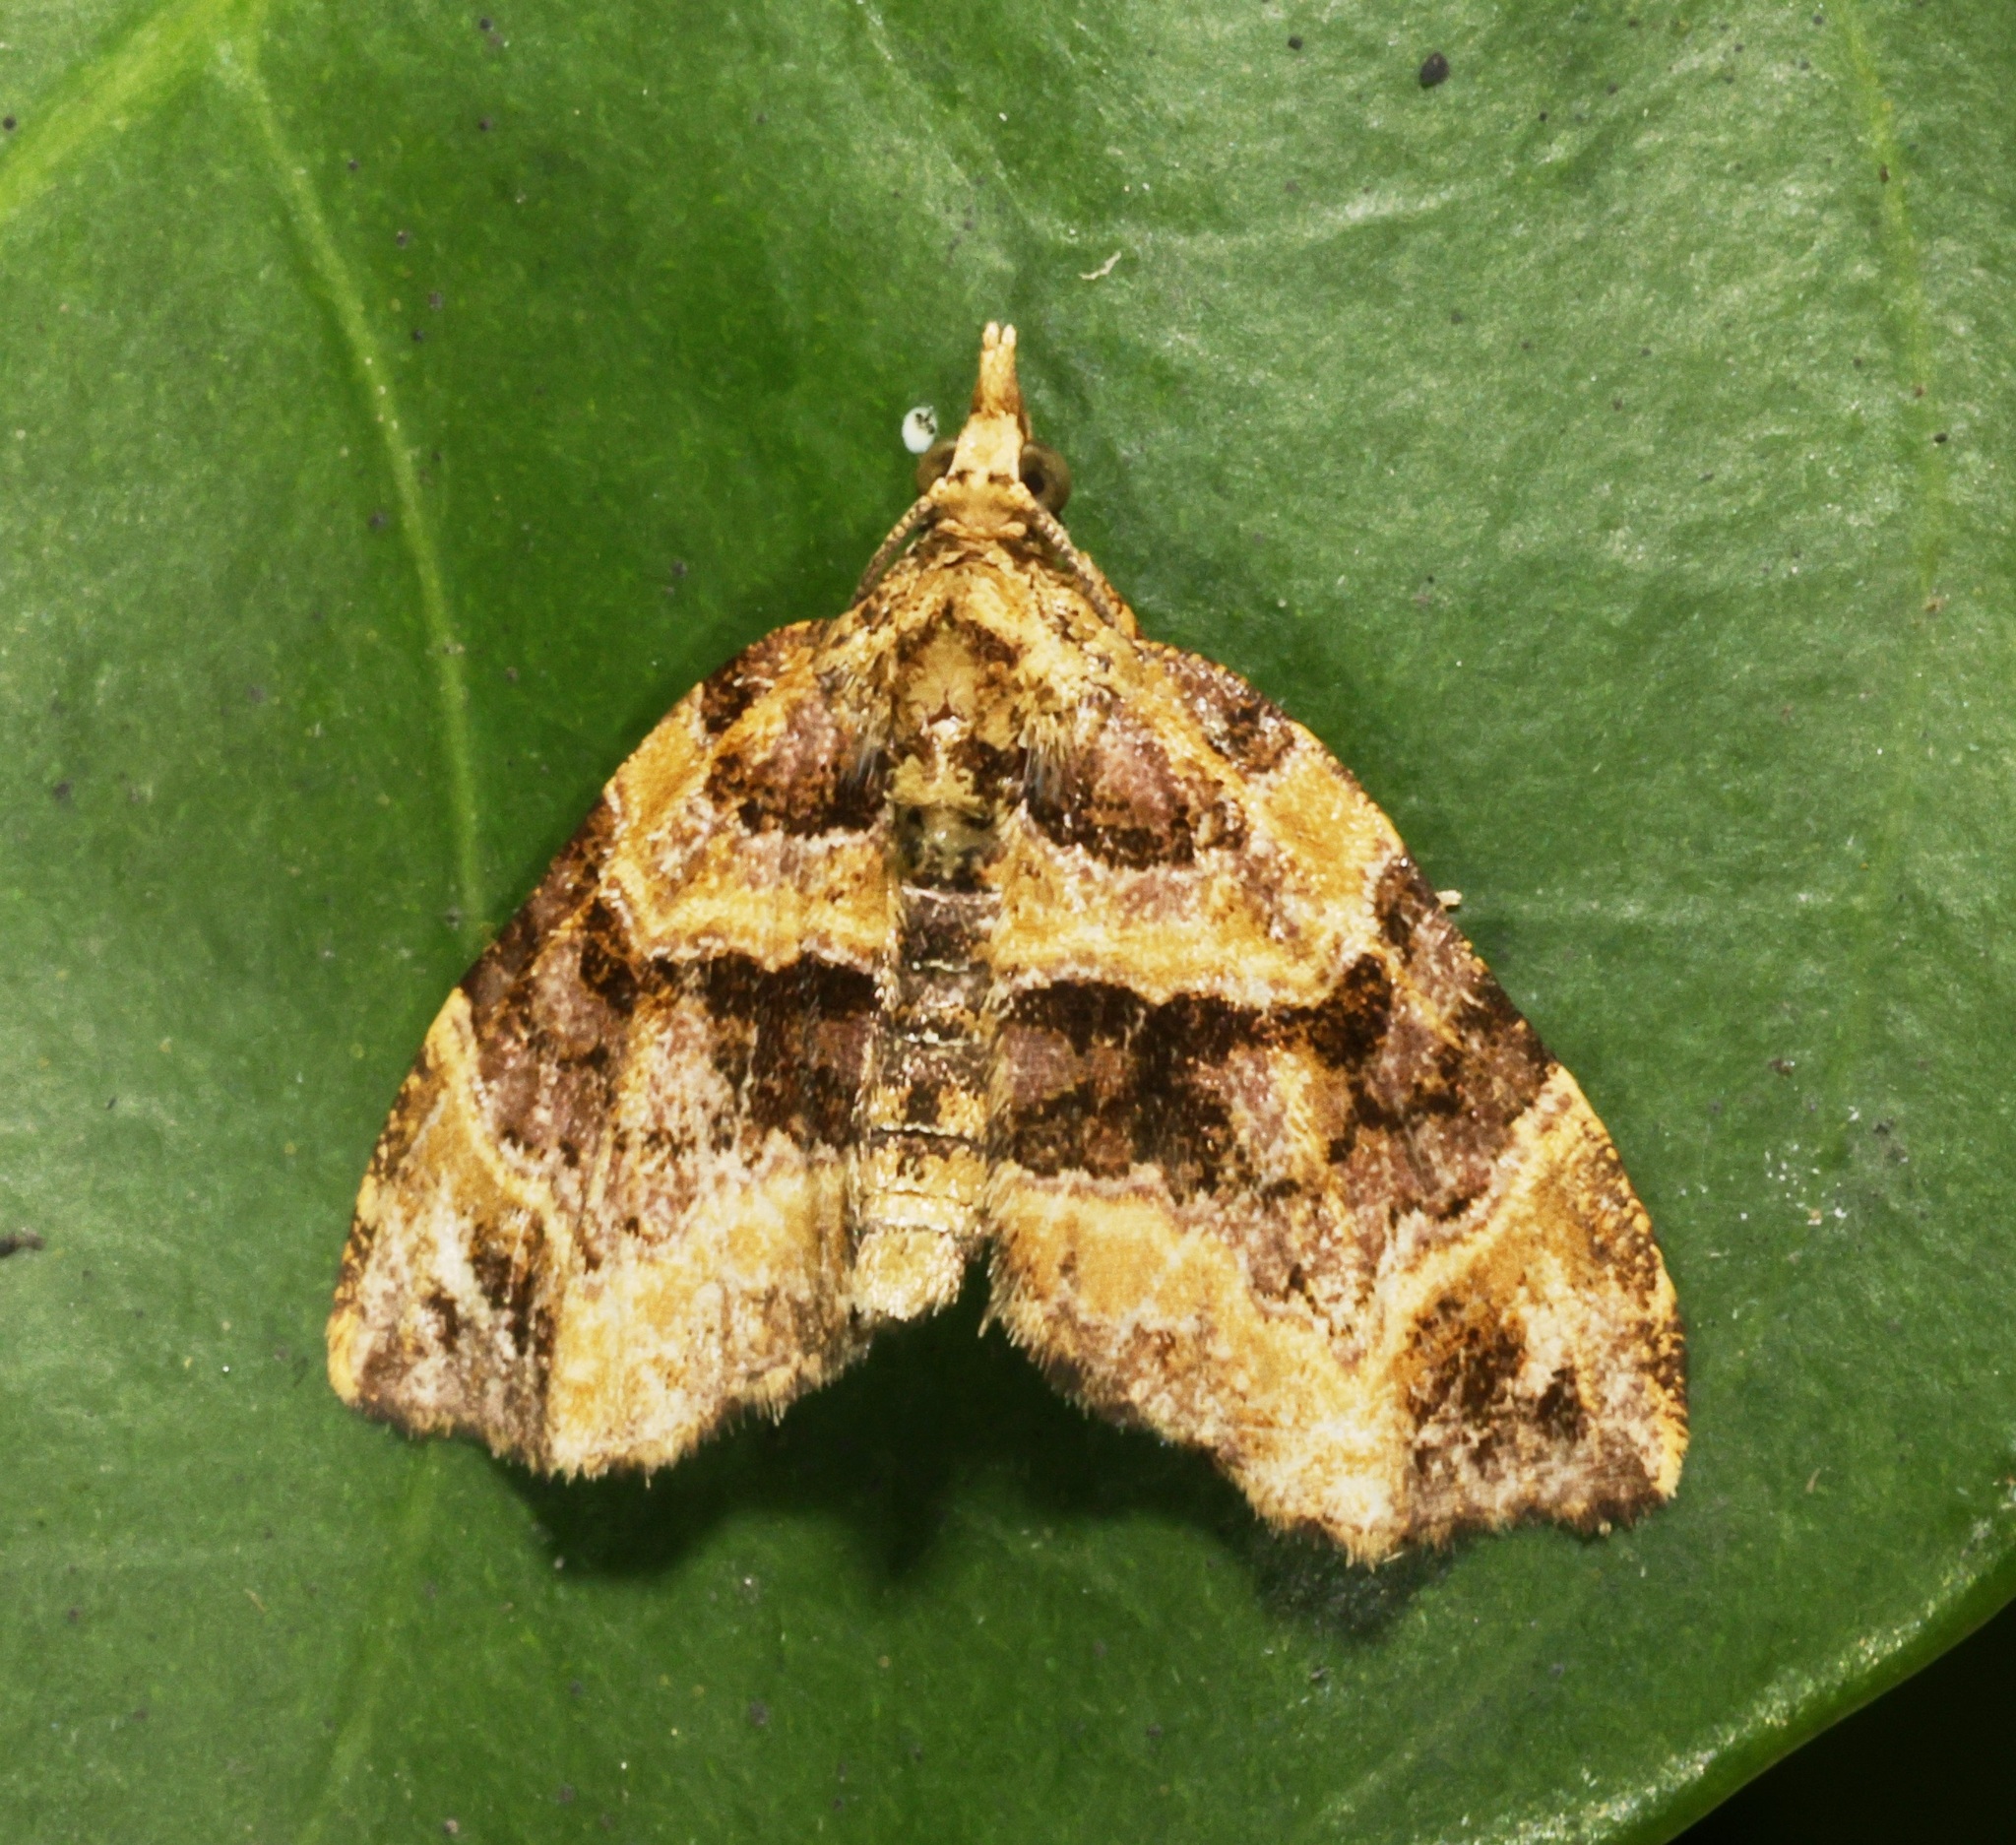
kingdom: Animalia
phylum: Arthropoda
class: Insecta
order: Lepidoptera
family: Geometridae
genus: Chaetolopha
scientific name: Chaetolopha incurvata
